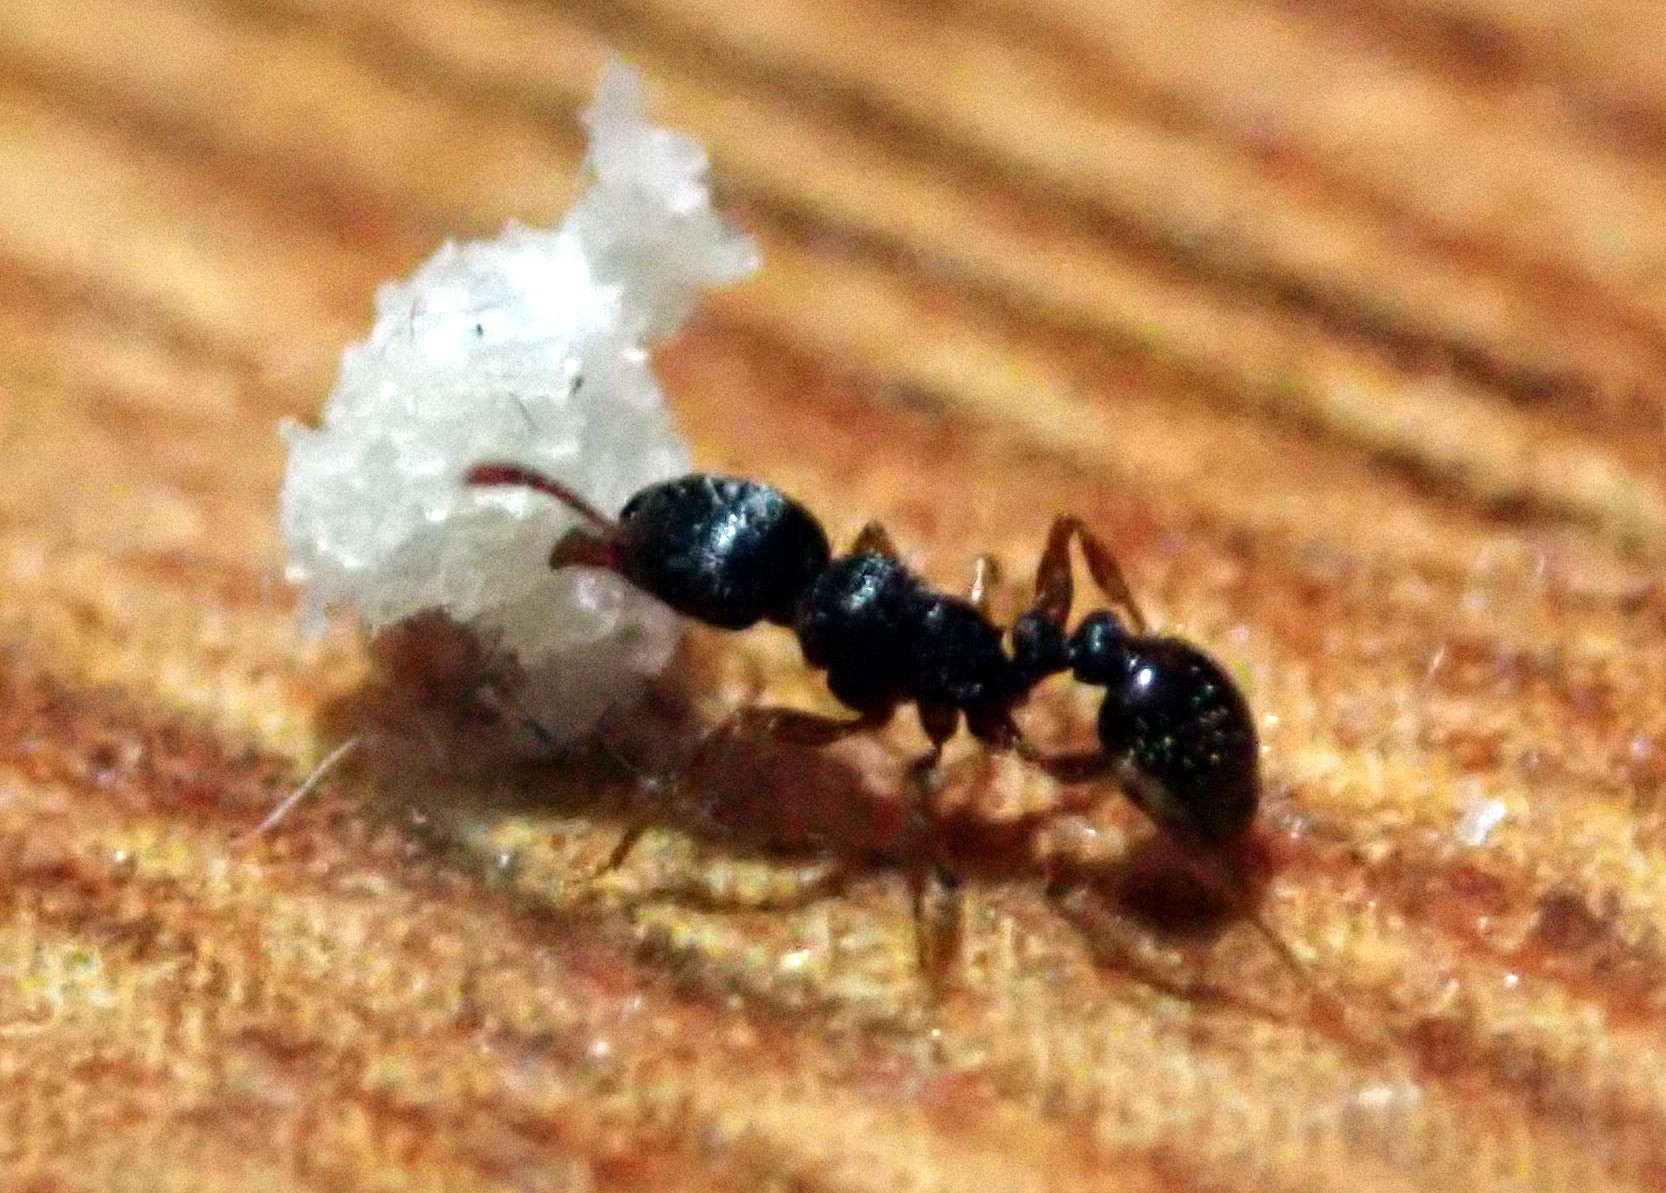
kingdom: Animalia
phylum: Arthropoda
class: Insecta
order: Hymenoptera
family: Formicidae
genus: Tetramorium
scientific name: Tetramorium immigrans
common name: Pavement ant
